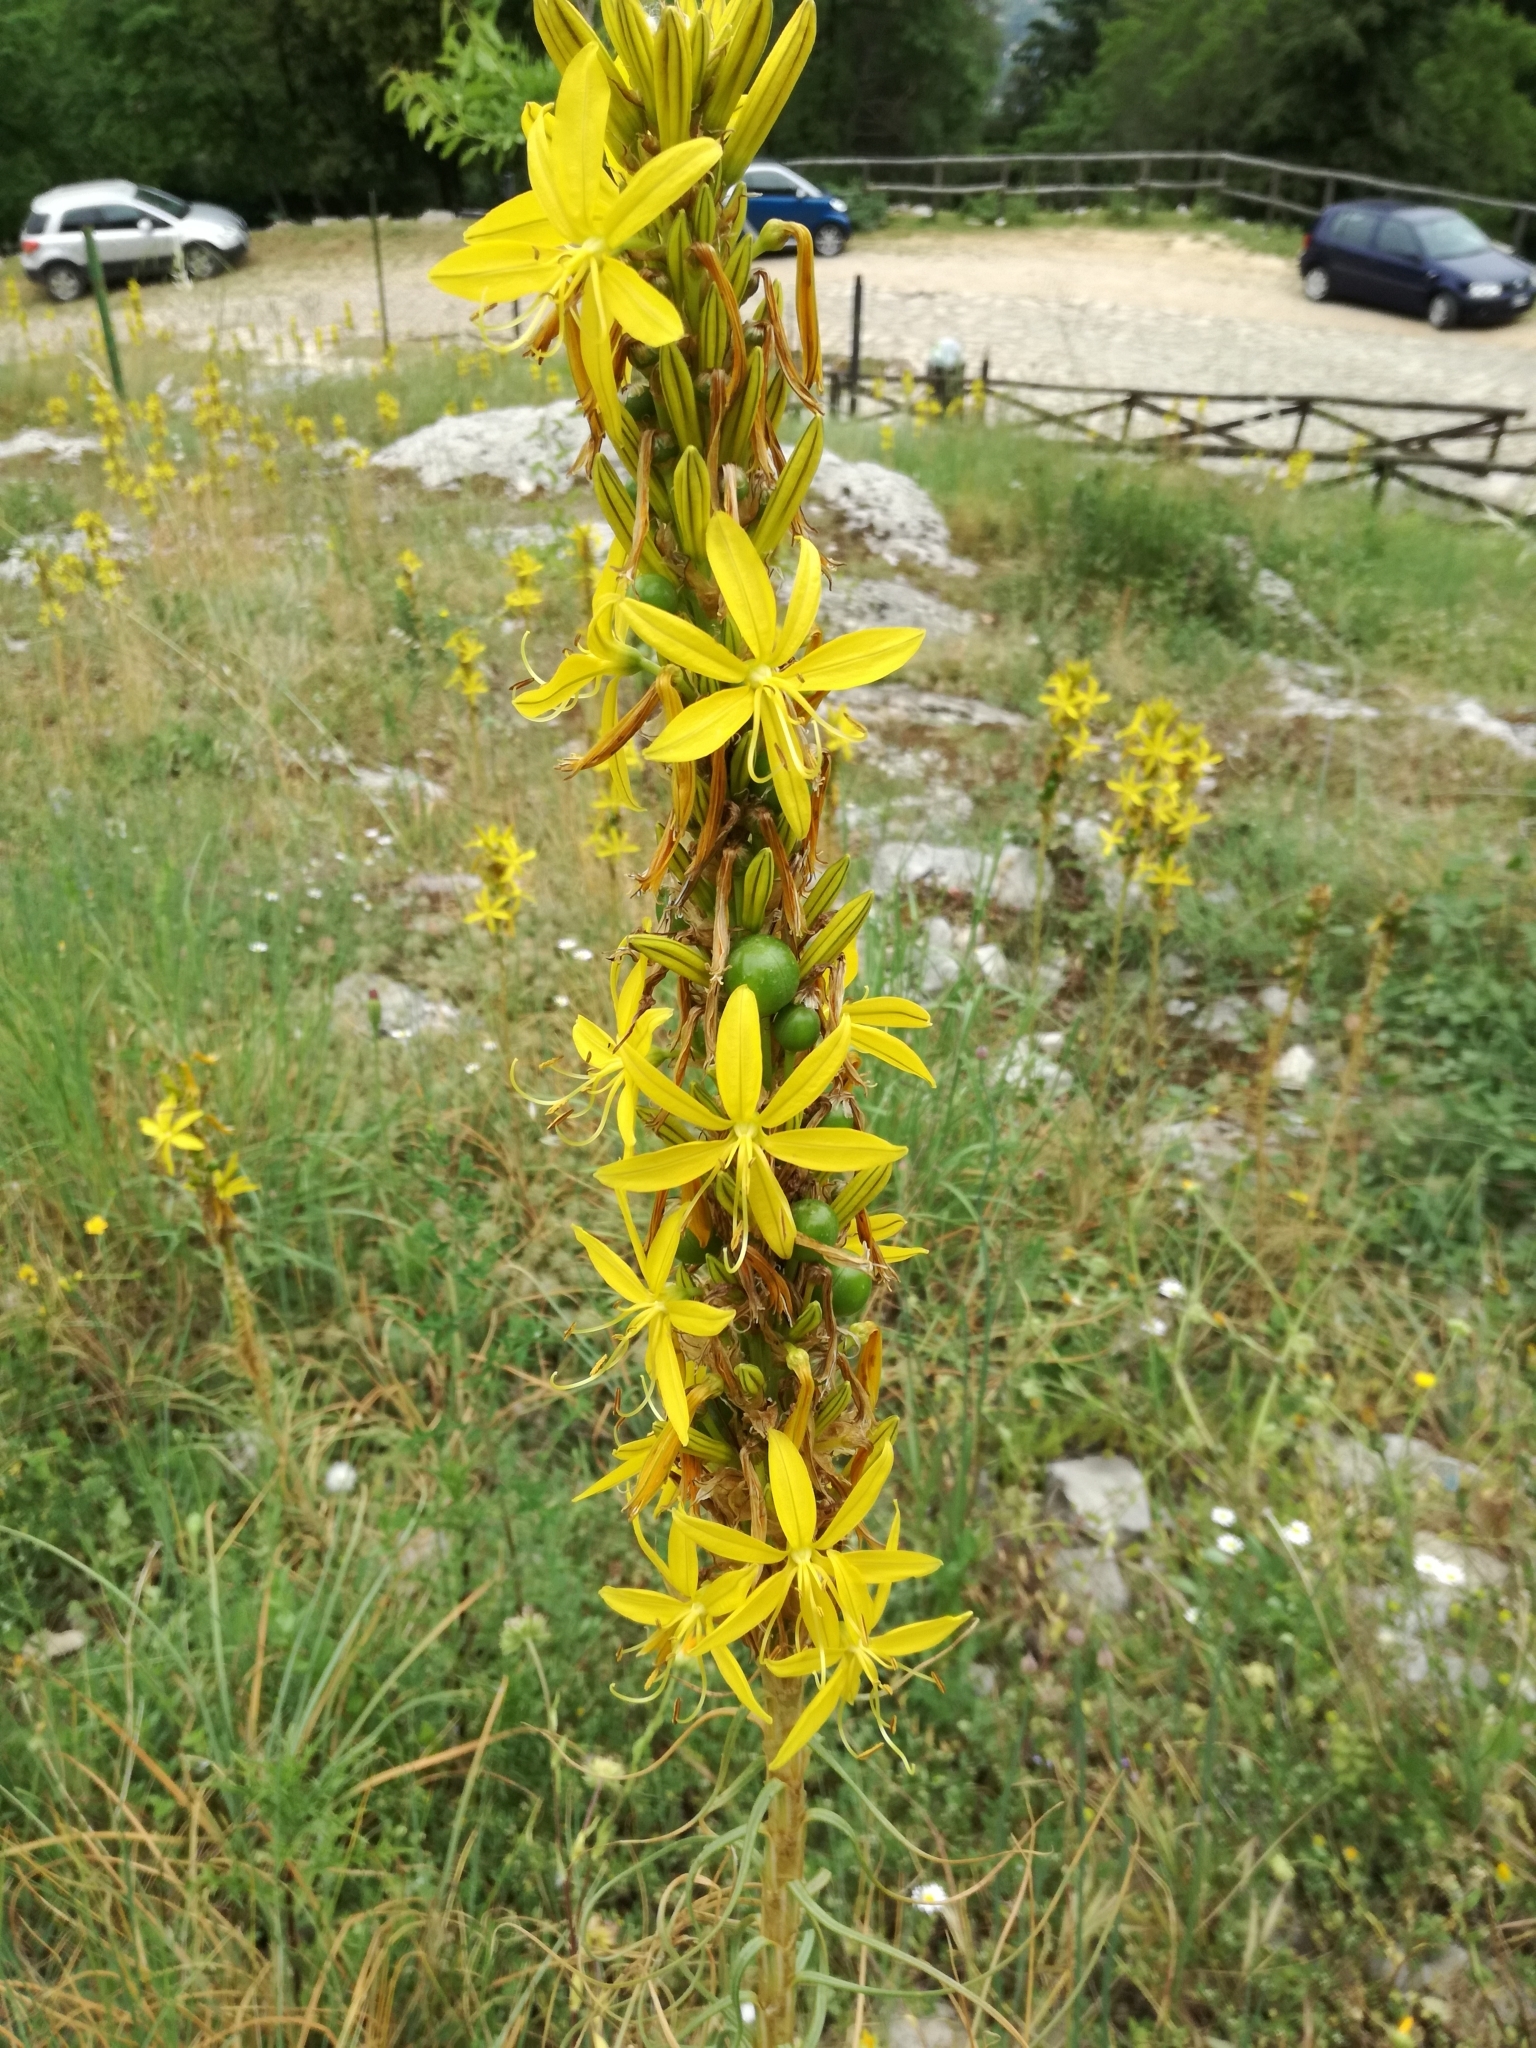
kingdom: Plantae
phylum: Tracheophyta
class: Liliopsida
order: Asparagales
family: Asphodelaceae
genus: Asphodeline
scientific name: Asphodeline lutea
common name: Yellow asphodel
